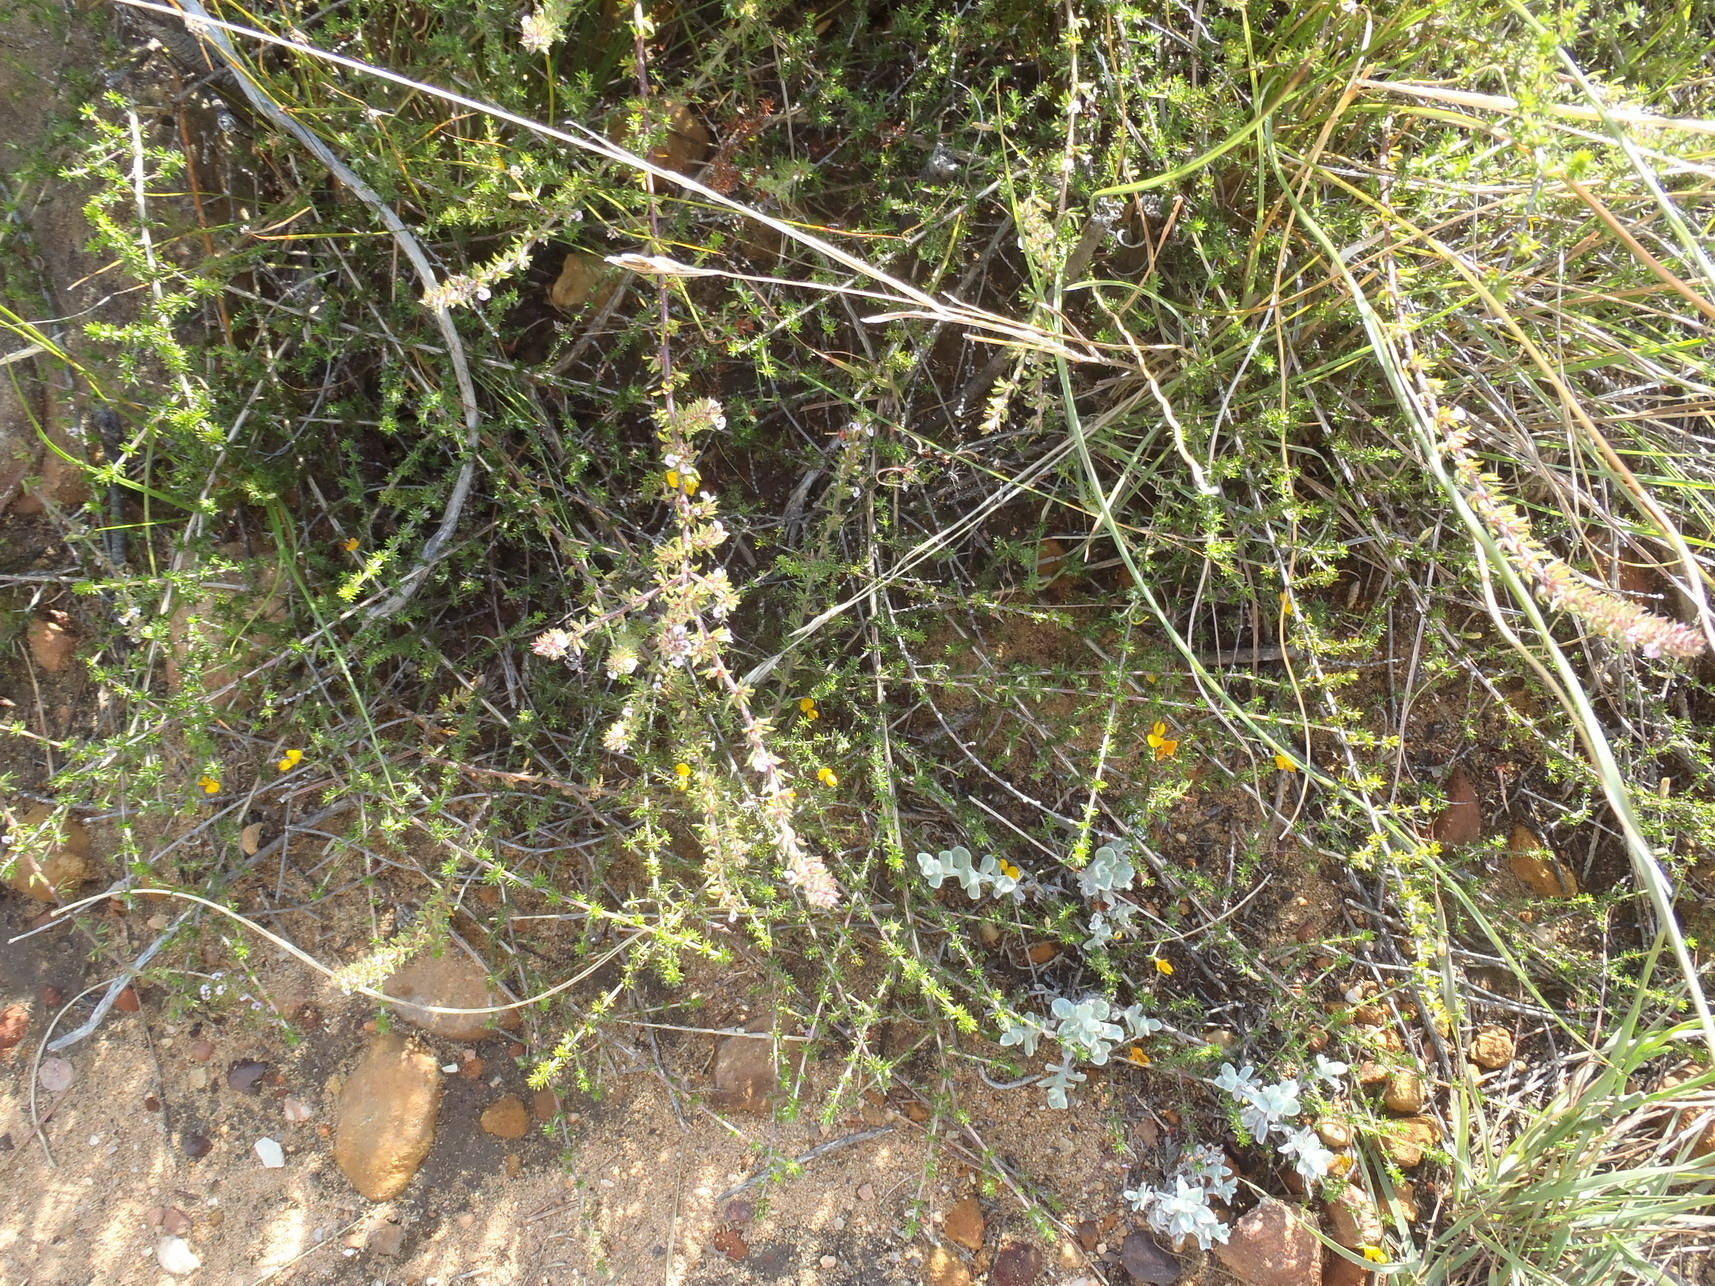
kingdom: Plantae
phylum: Tracheophyta
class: Magnoliopsida
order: Fabales
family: Fabaceae
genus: Aspalathus
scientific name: Aspalathus rubens
